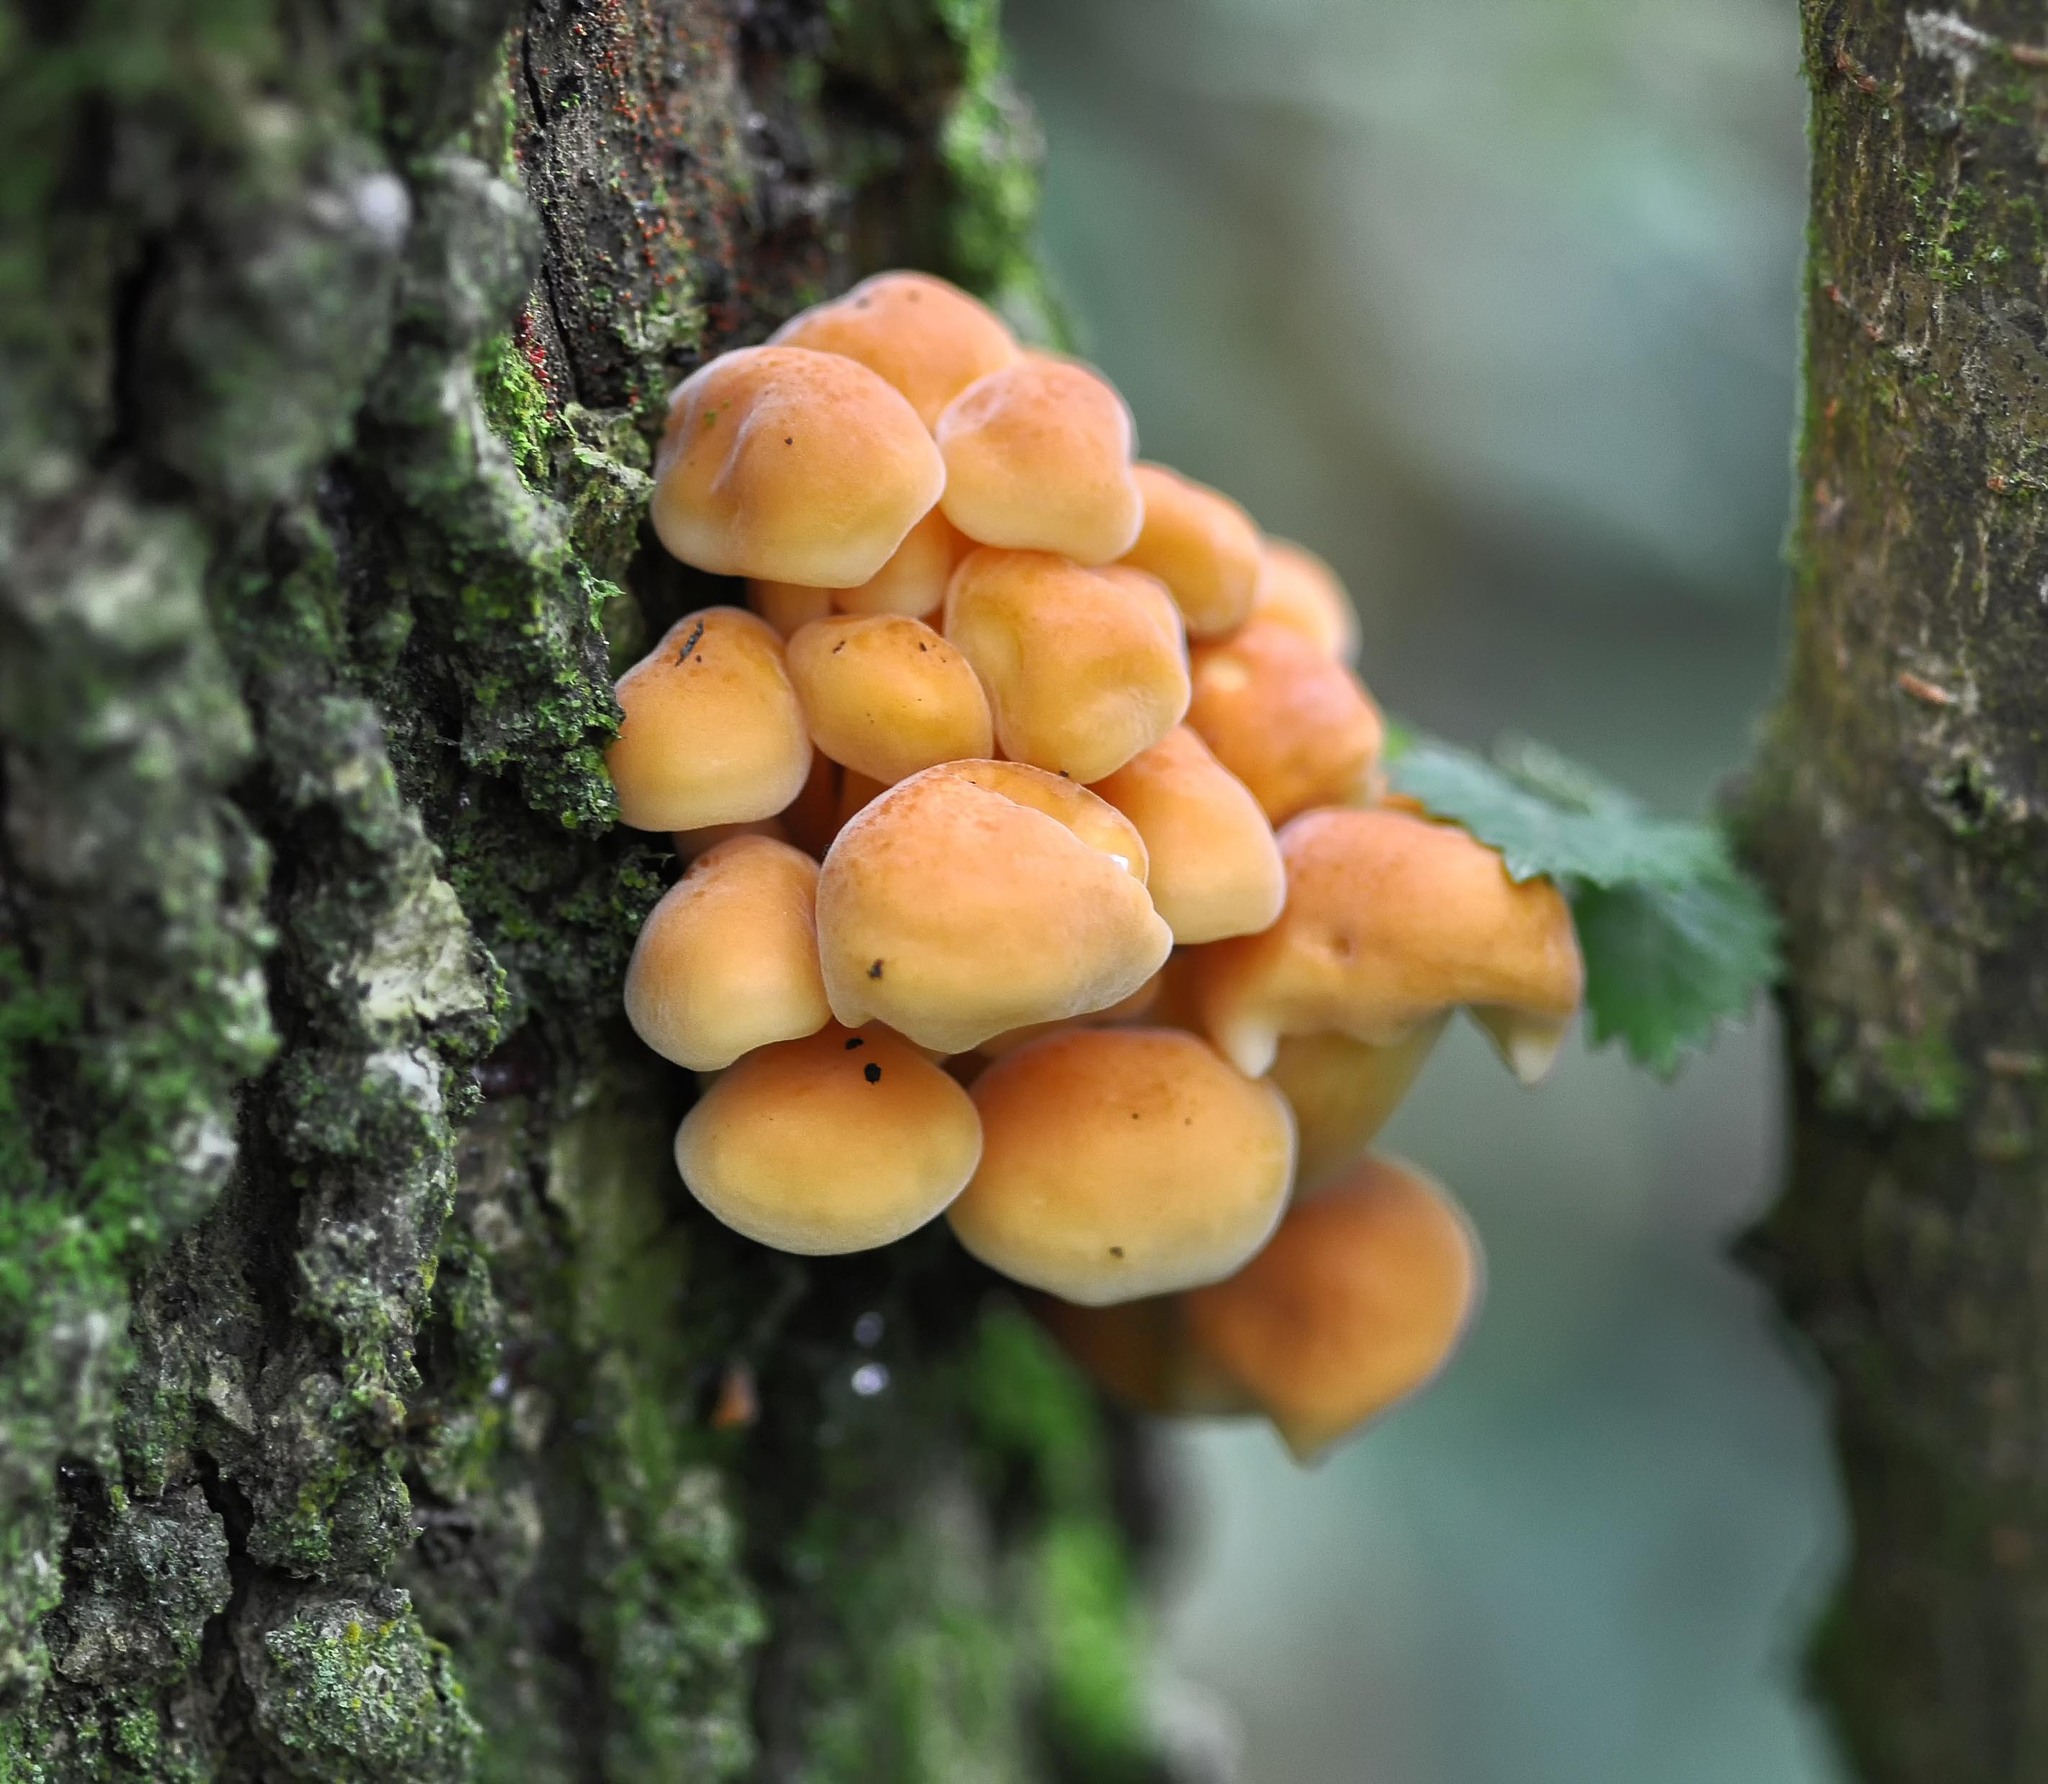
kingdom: Fungi
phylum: Basidiomycota
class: Agaricomycetes
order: Agaricales
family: Strophariaceae
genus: Hypholoma
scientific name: Hypholoma fasciculare
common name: Sulphur tuft
